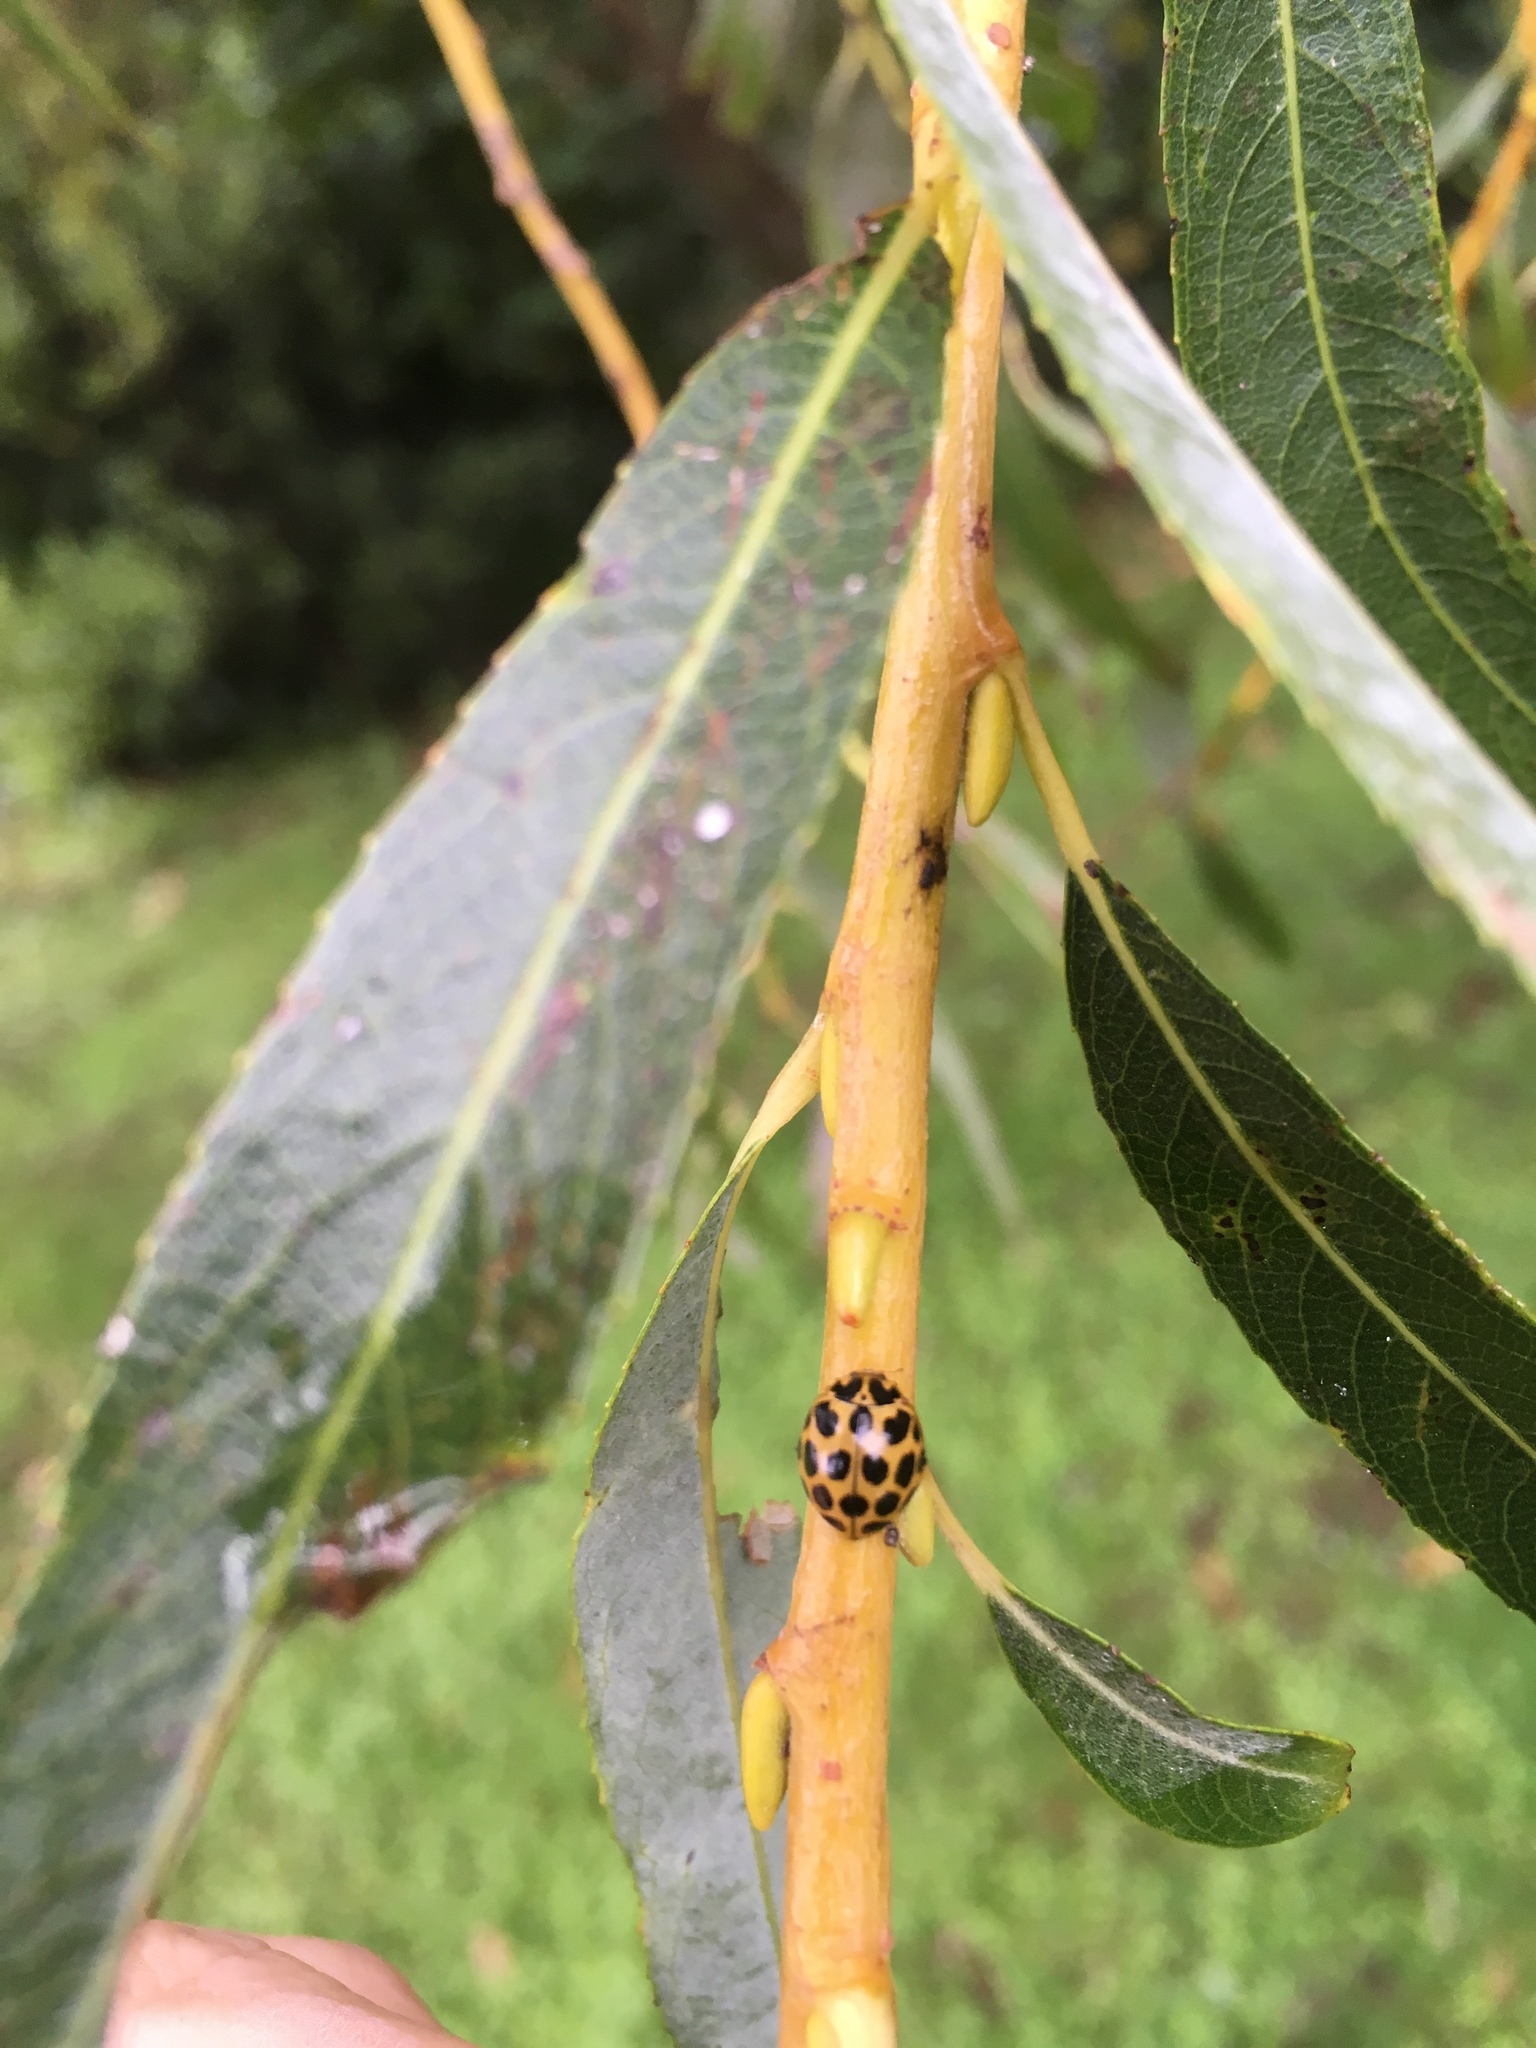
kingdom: Animalia
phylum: Arthropoda
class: Insecta
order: Coleoptera
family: Coccinellidae
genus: Harmonia
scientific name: Harmonia conformis
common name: Common spotted ladybird beetle
